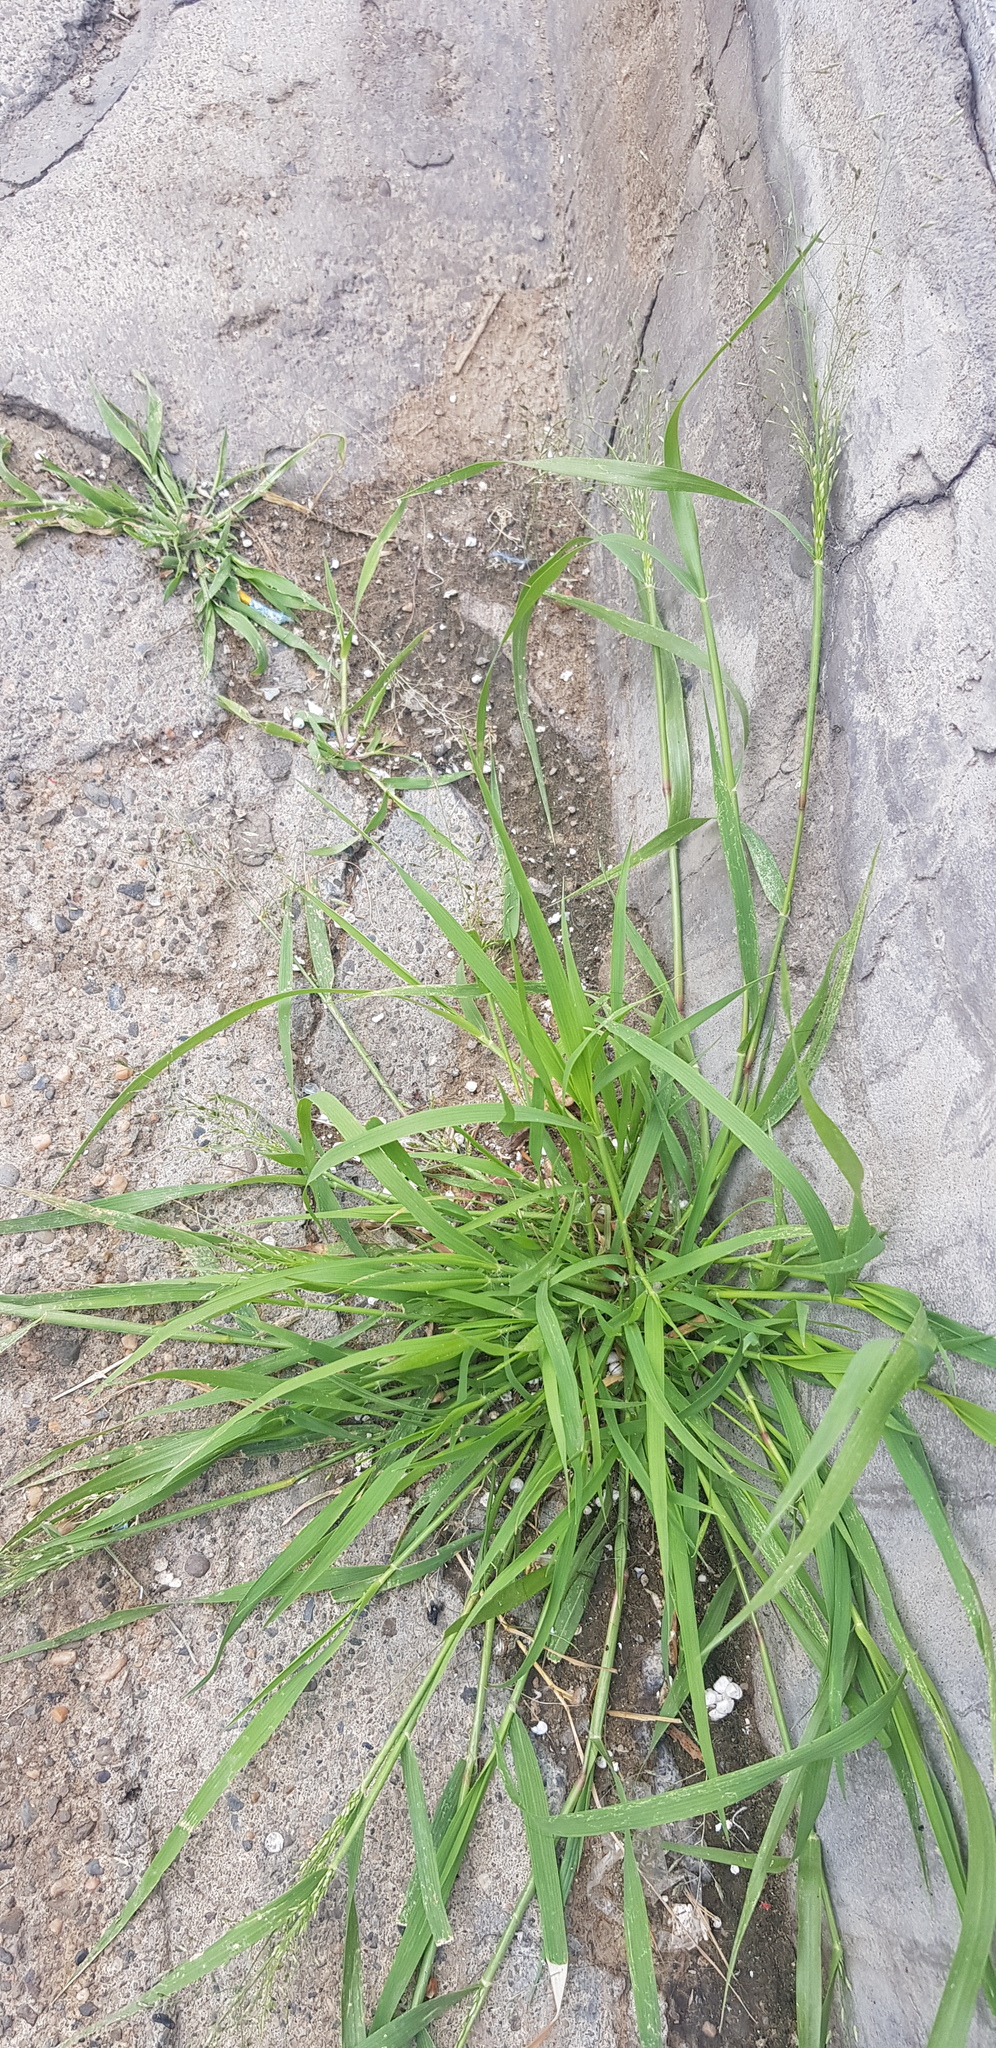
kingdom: Plantae
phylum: Tracheophyta
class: Liliopsida
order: Poales
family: Poaceae
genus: Eragrostis
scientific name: Eragrostis pilosa
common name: Indian lovegrass
